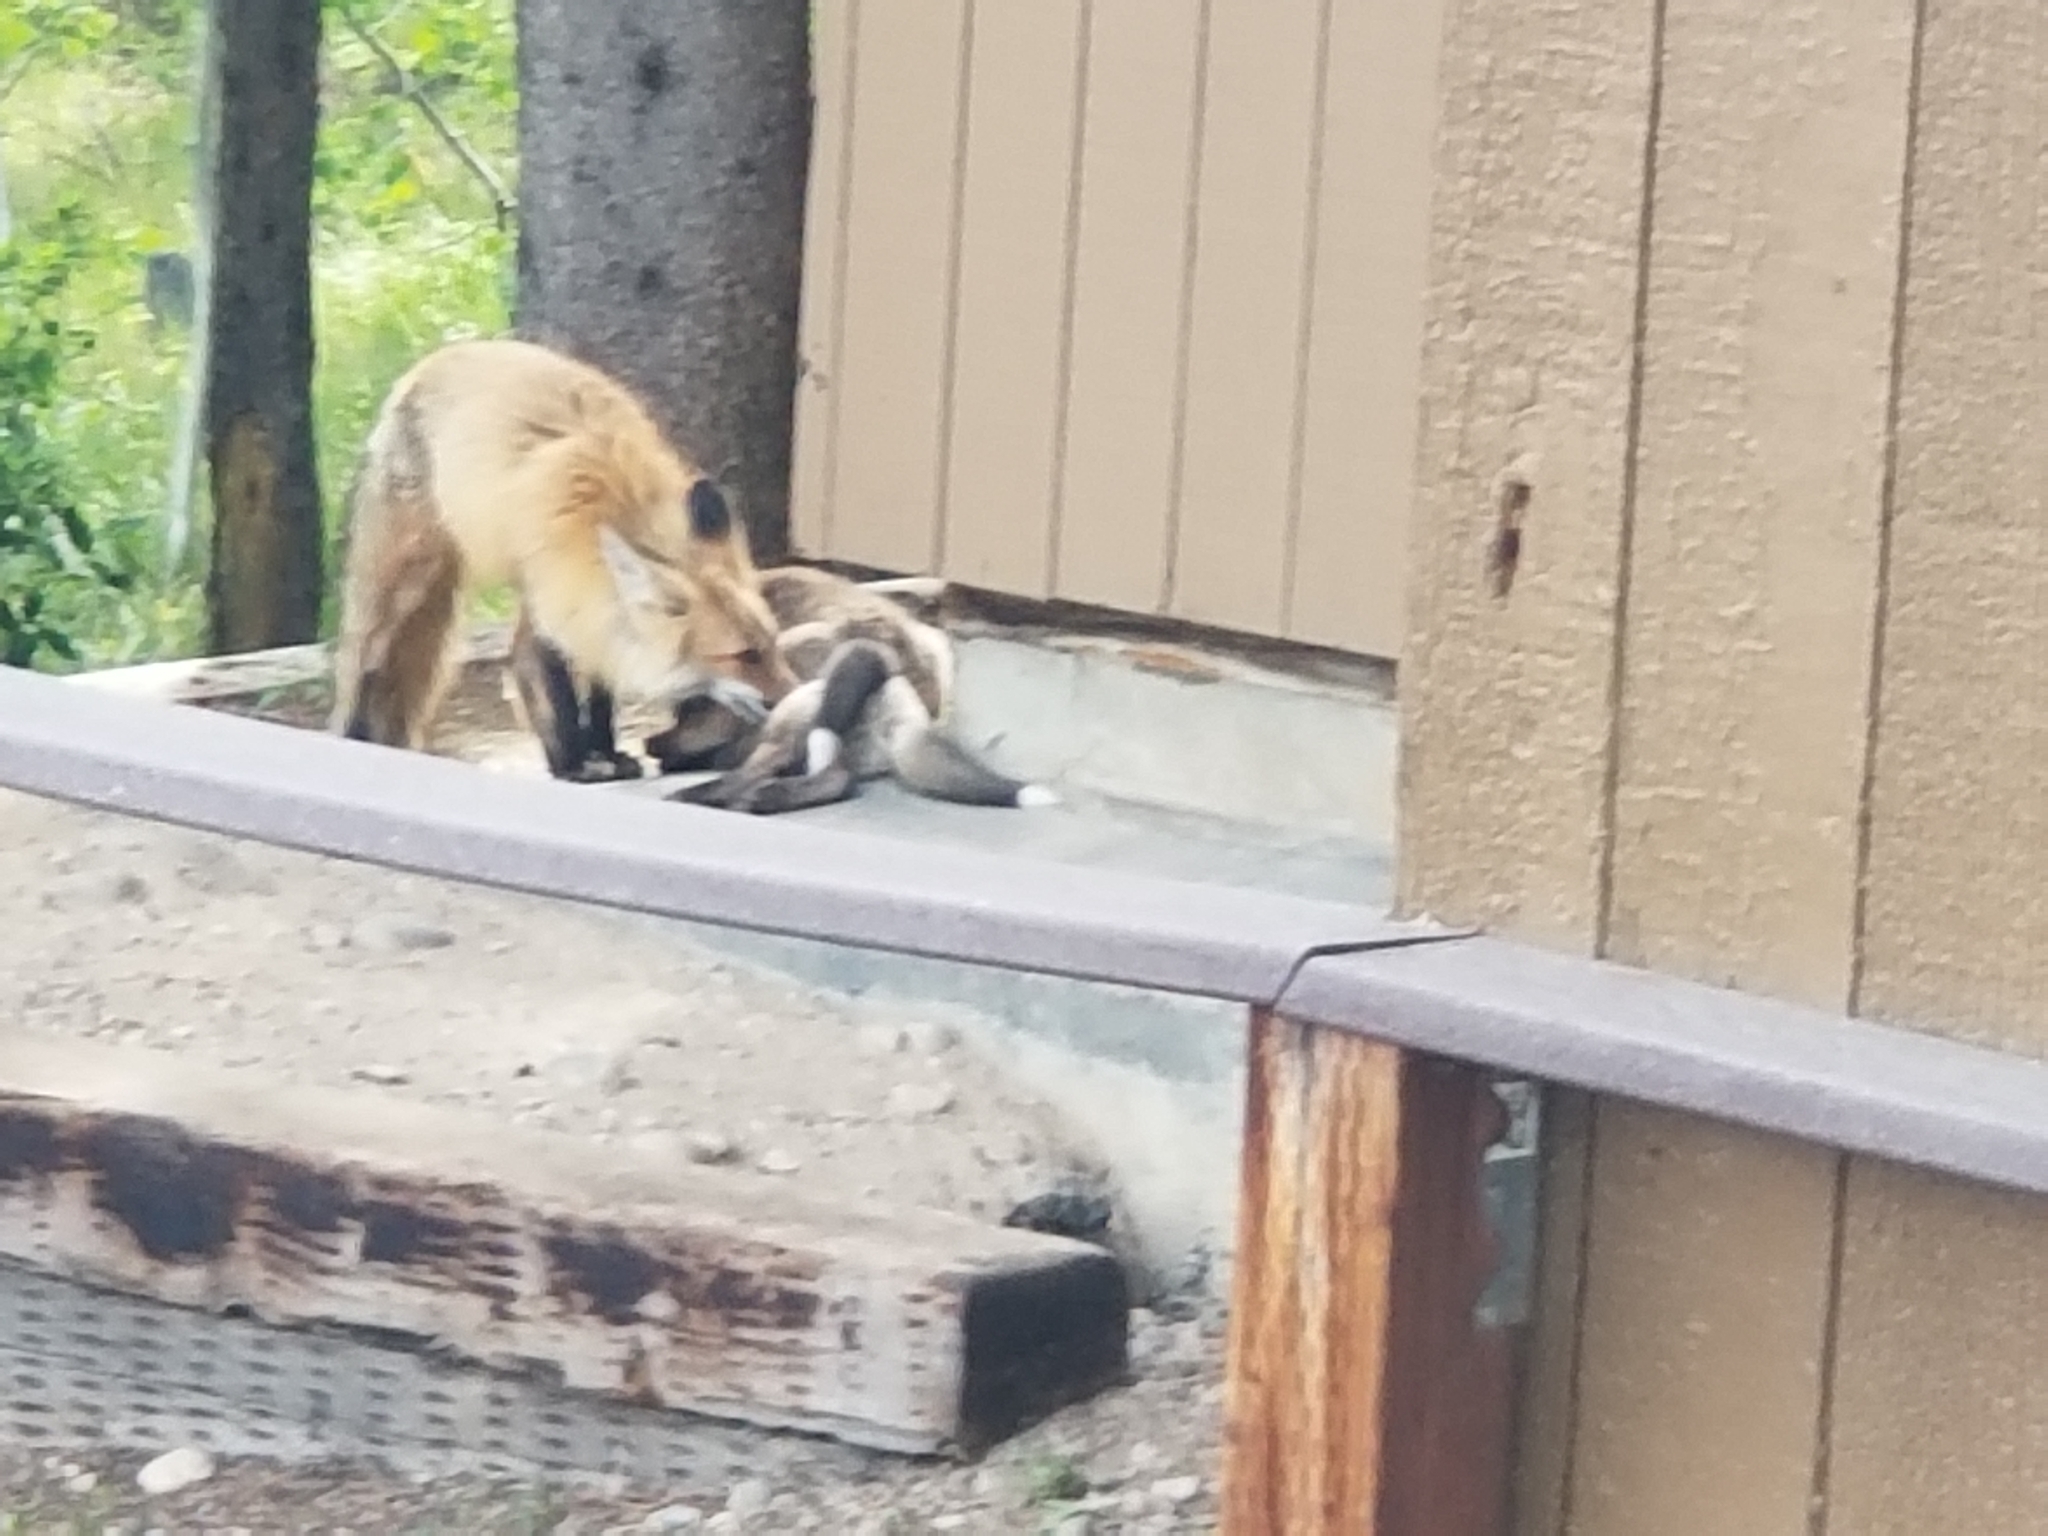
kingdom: Animalia
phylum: Chordata
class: Mammalia
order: Carnivora
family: Canidae
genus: Vulpes
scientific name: Vulpes vulpes
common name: Red fox
